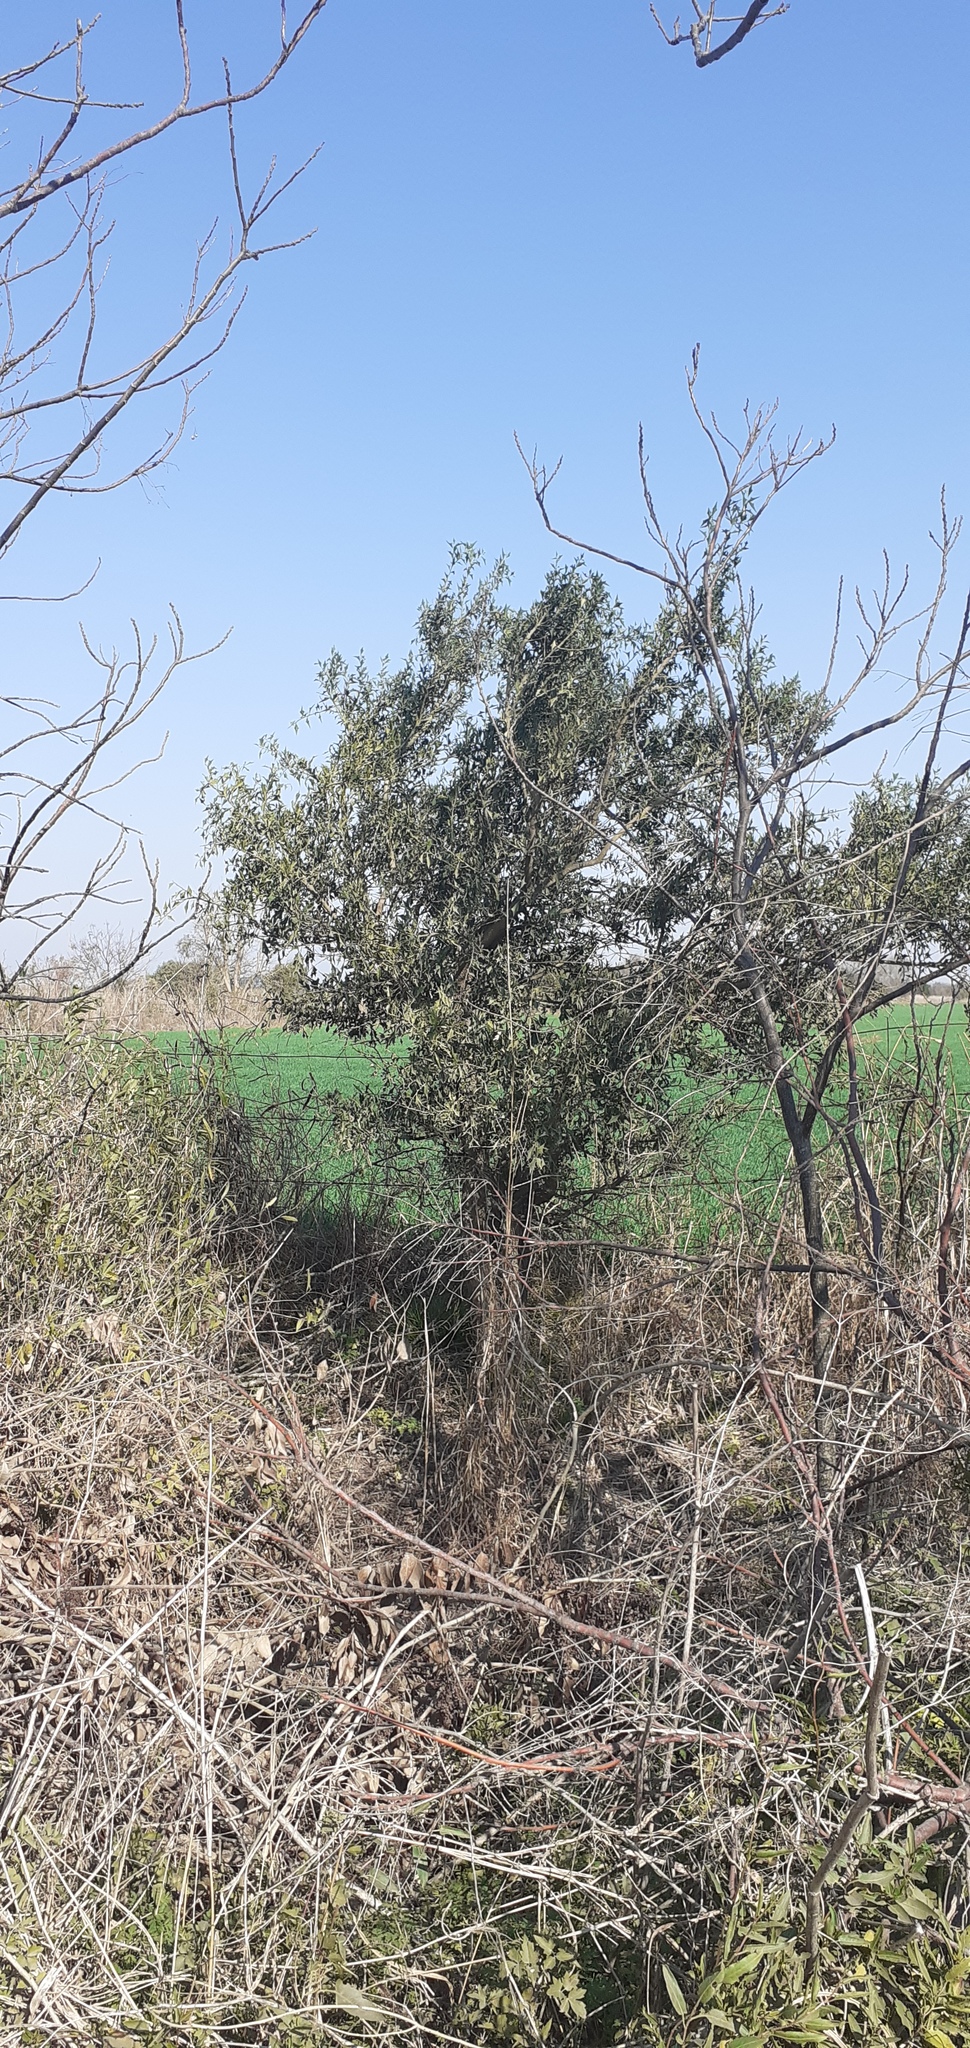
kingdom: Plantae
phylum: Tracheophyta
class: Magnoliopsida
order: Santalales
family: Cervantesiaceae
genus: Jodina
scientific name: Jodina rhombifolia
